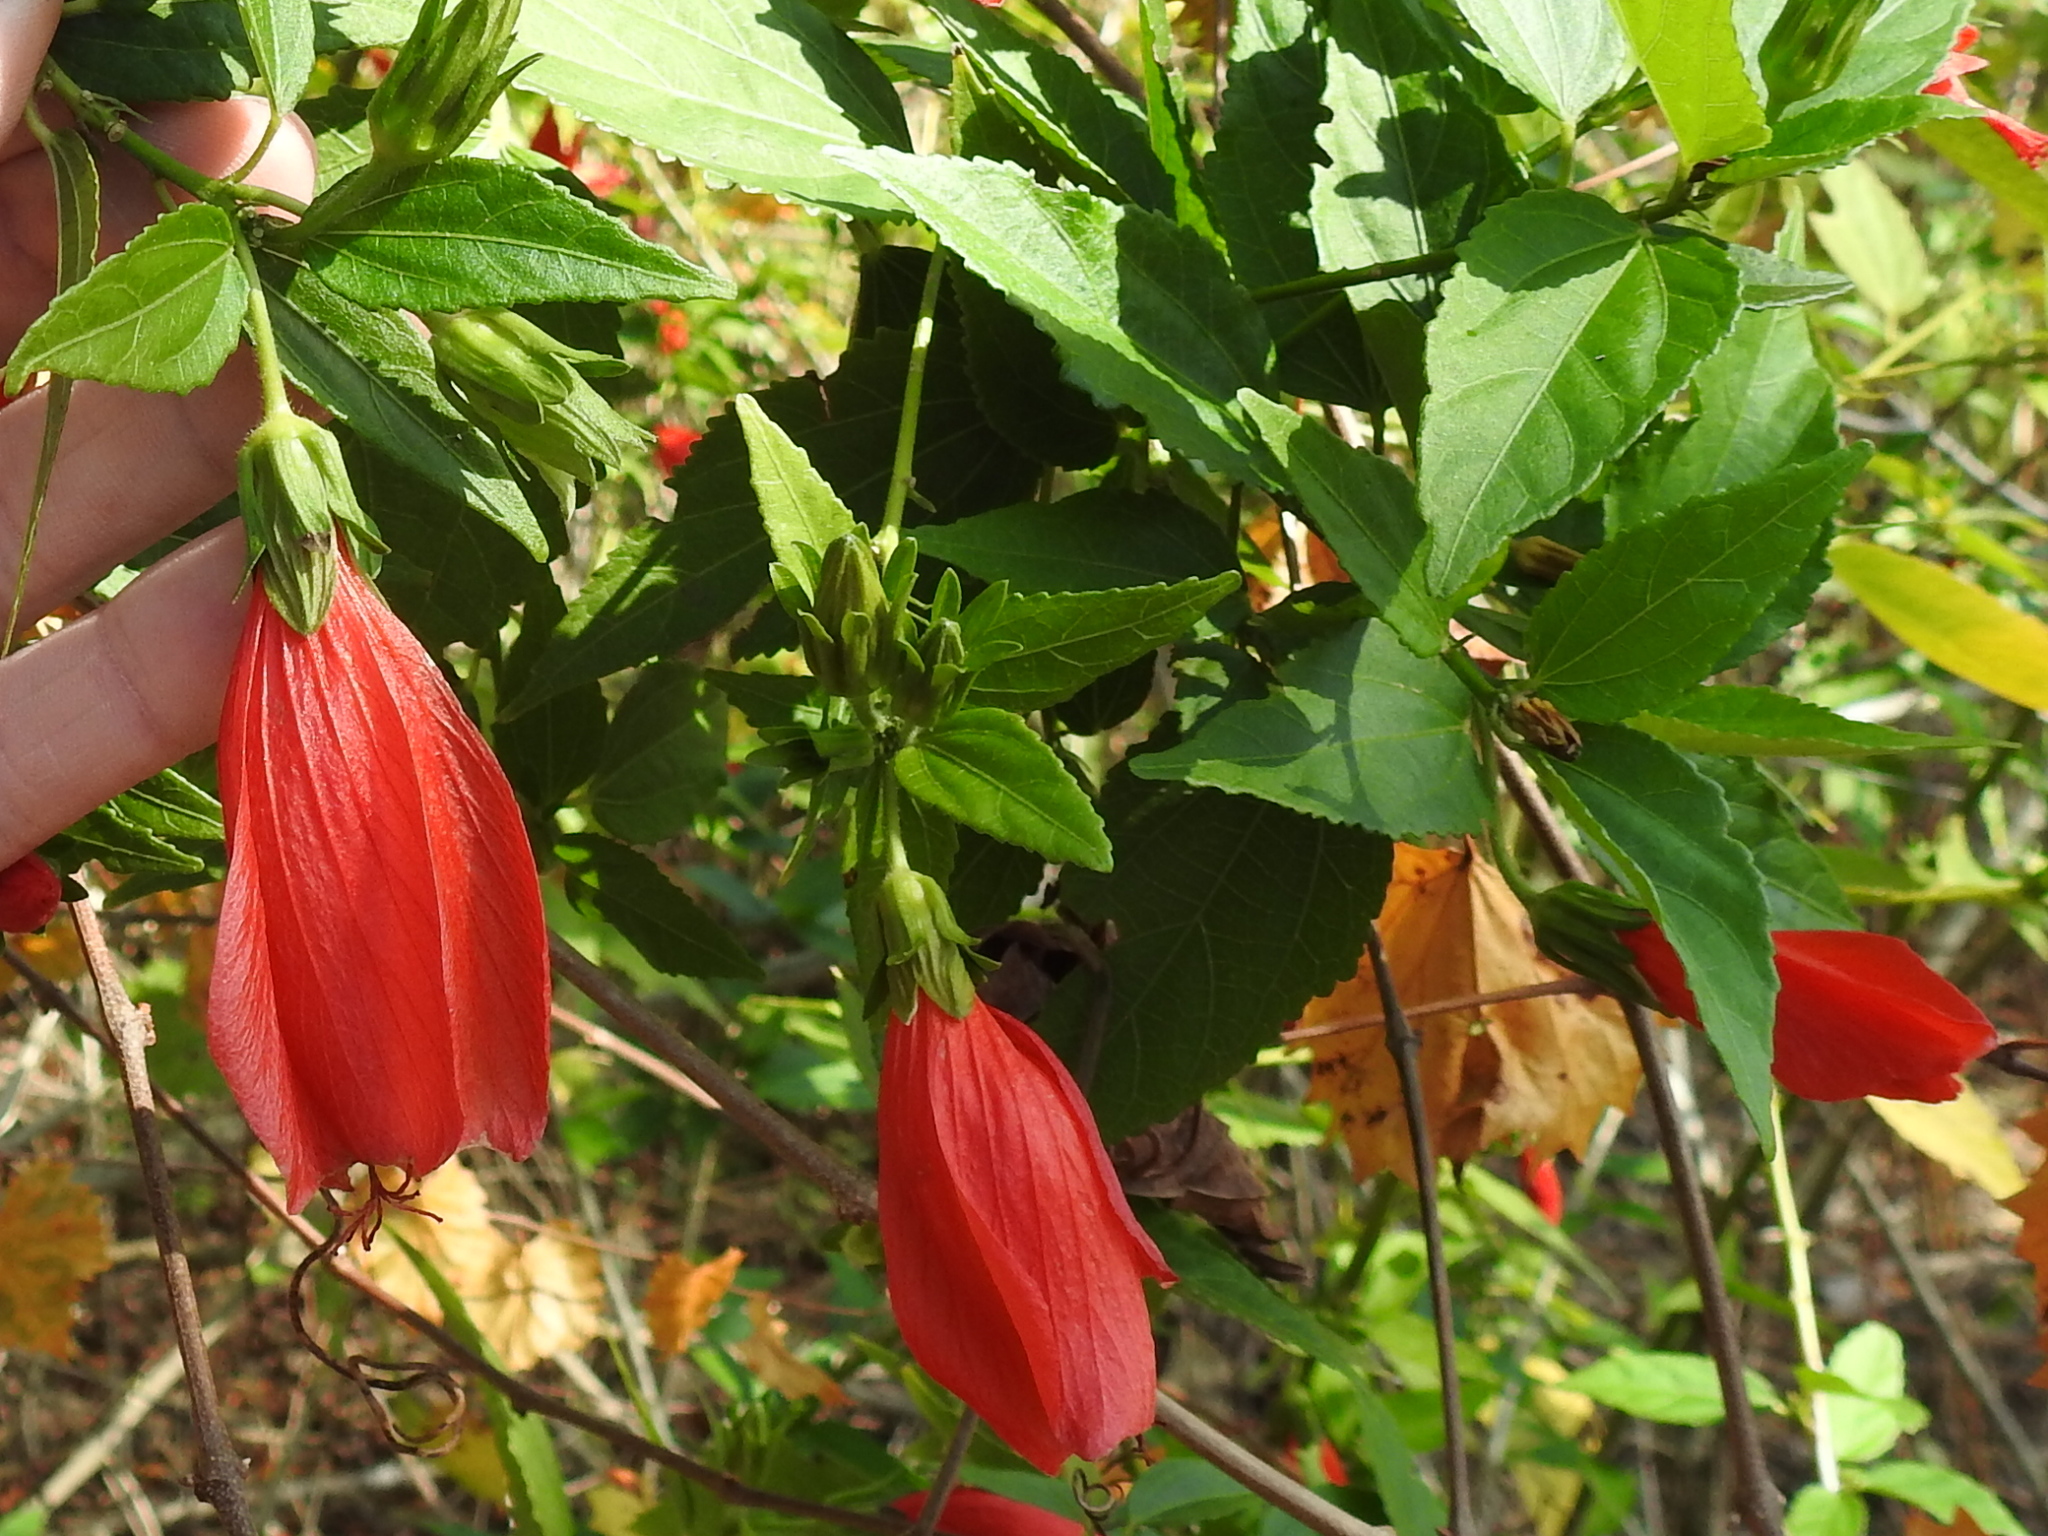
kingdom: Plantae
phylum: Tracheophyta
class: Magnoliopsida
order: Malvales
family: Malvaceae
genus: Malvaviscus
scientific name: Malvaviscus penduliflorus
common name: Mazapan
